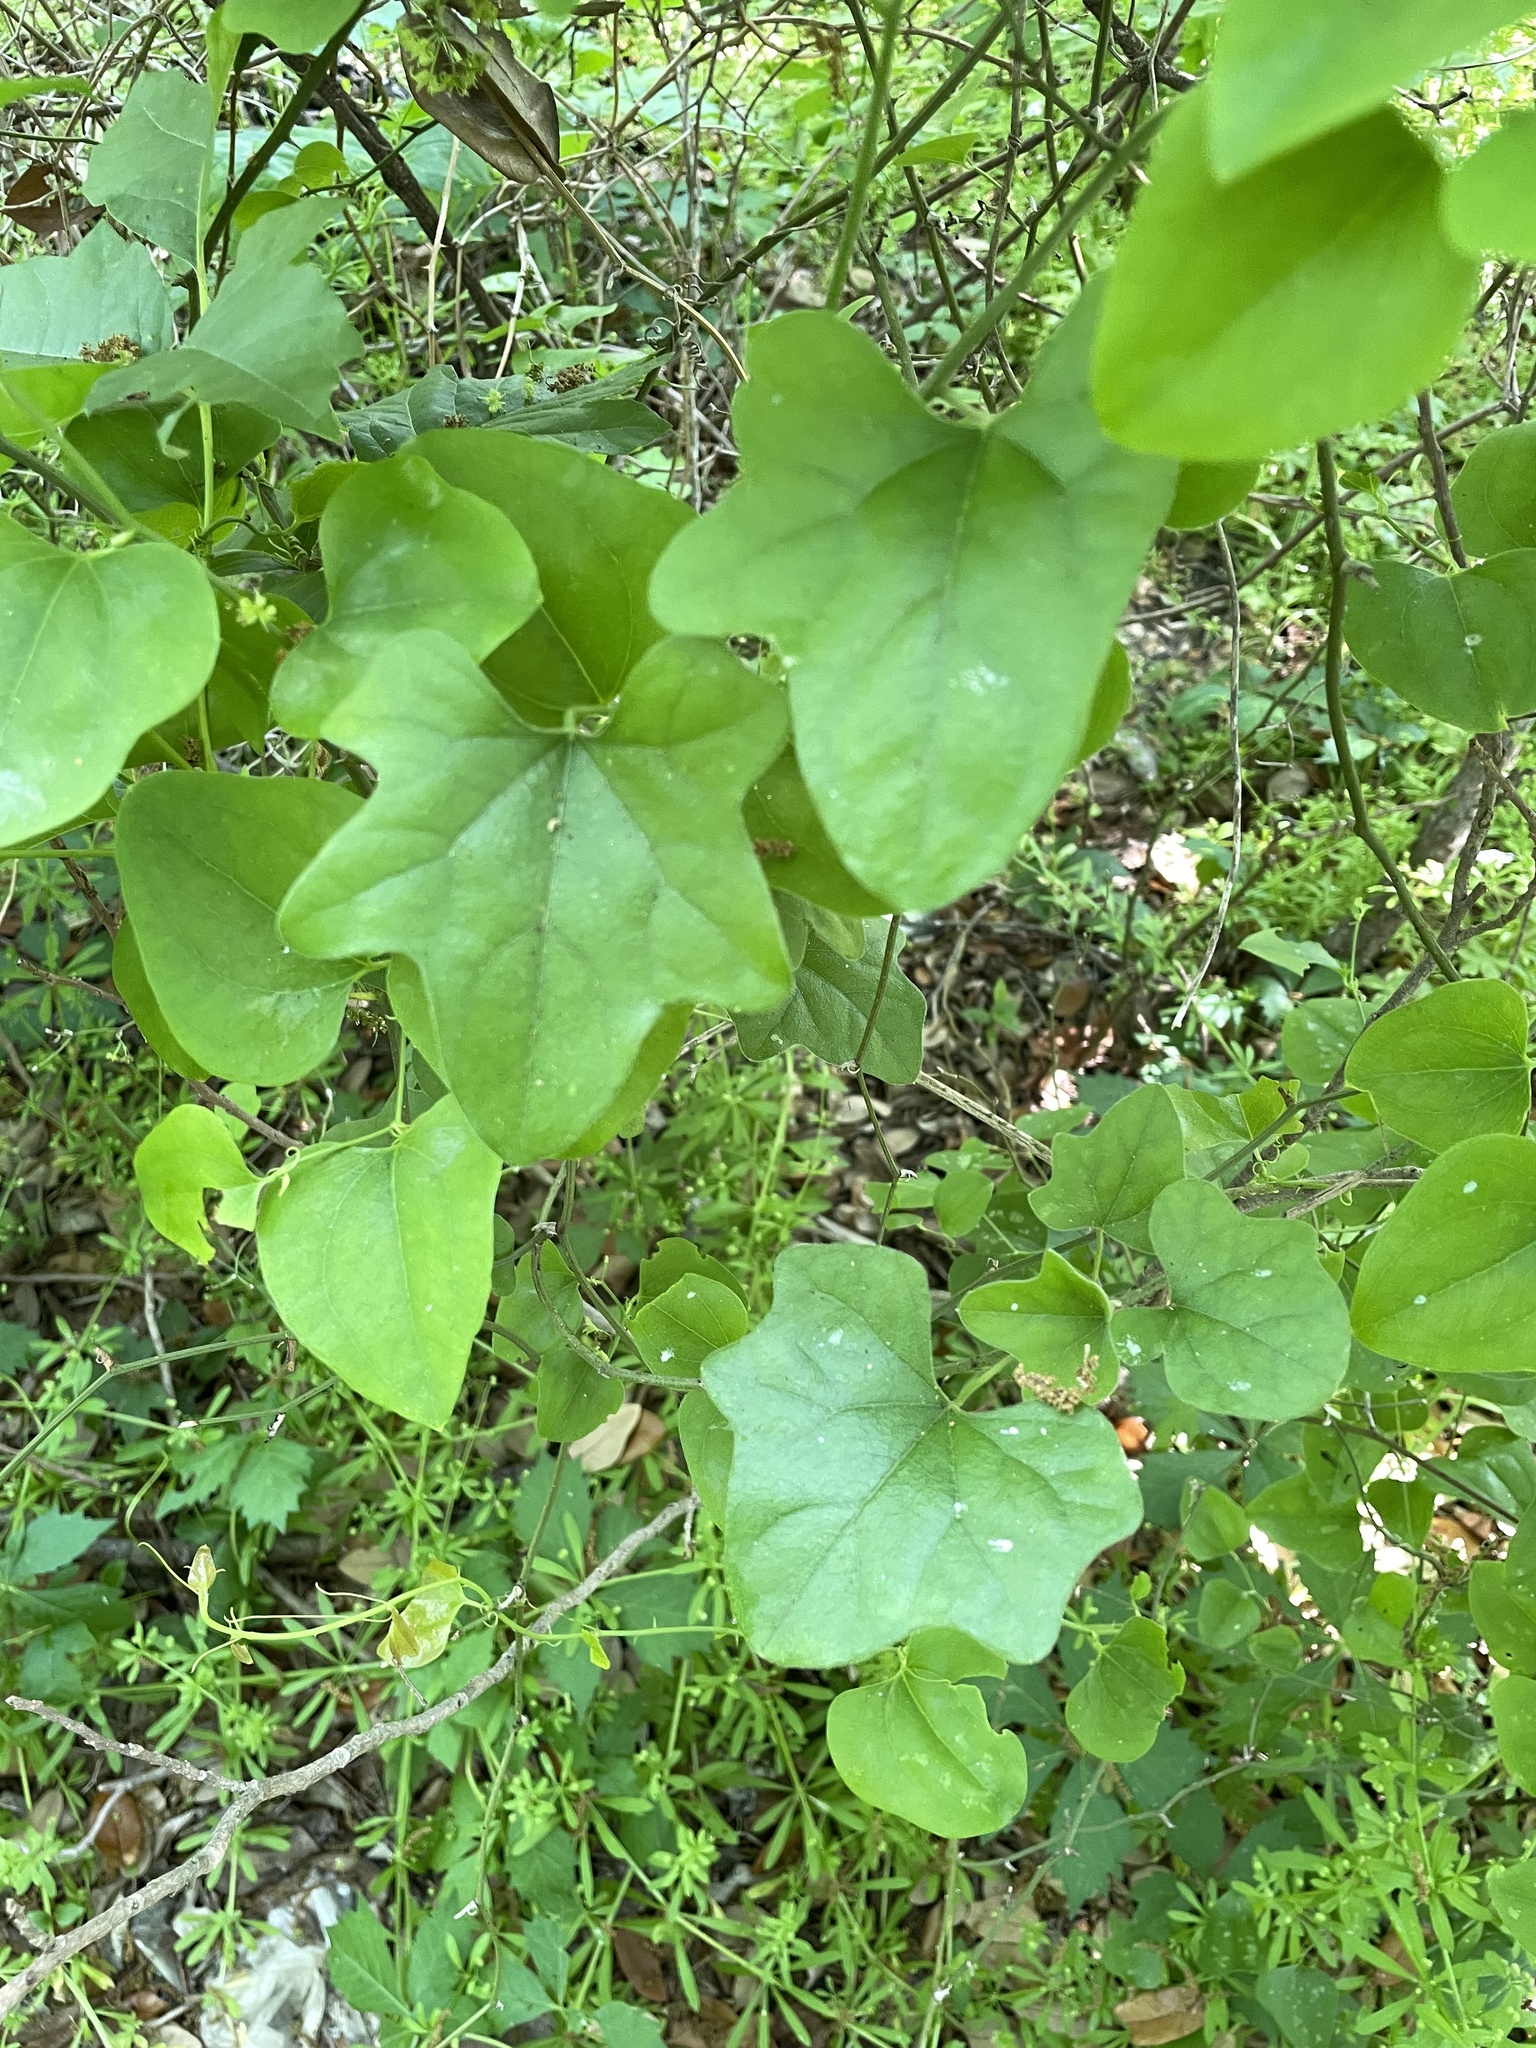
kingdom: Plantae
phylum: Tracheophyta
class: Magnoliopsida
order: Ranunculales
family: Menispermaceae
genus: Cocculus
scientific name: Cocculus carolinus
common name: Carolina moonseed
